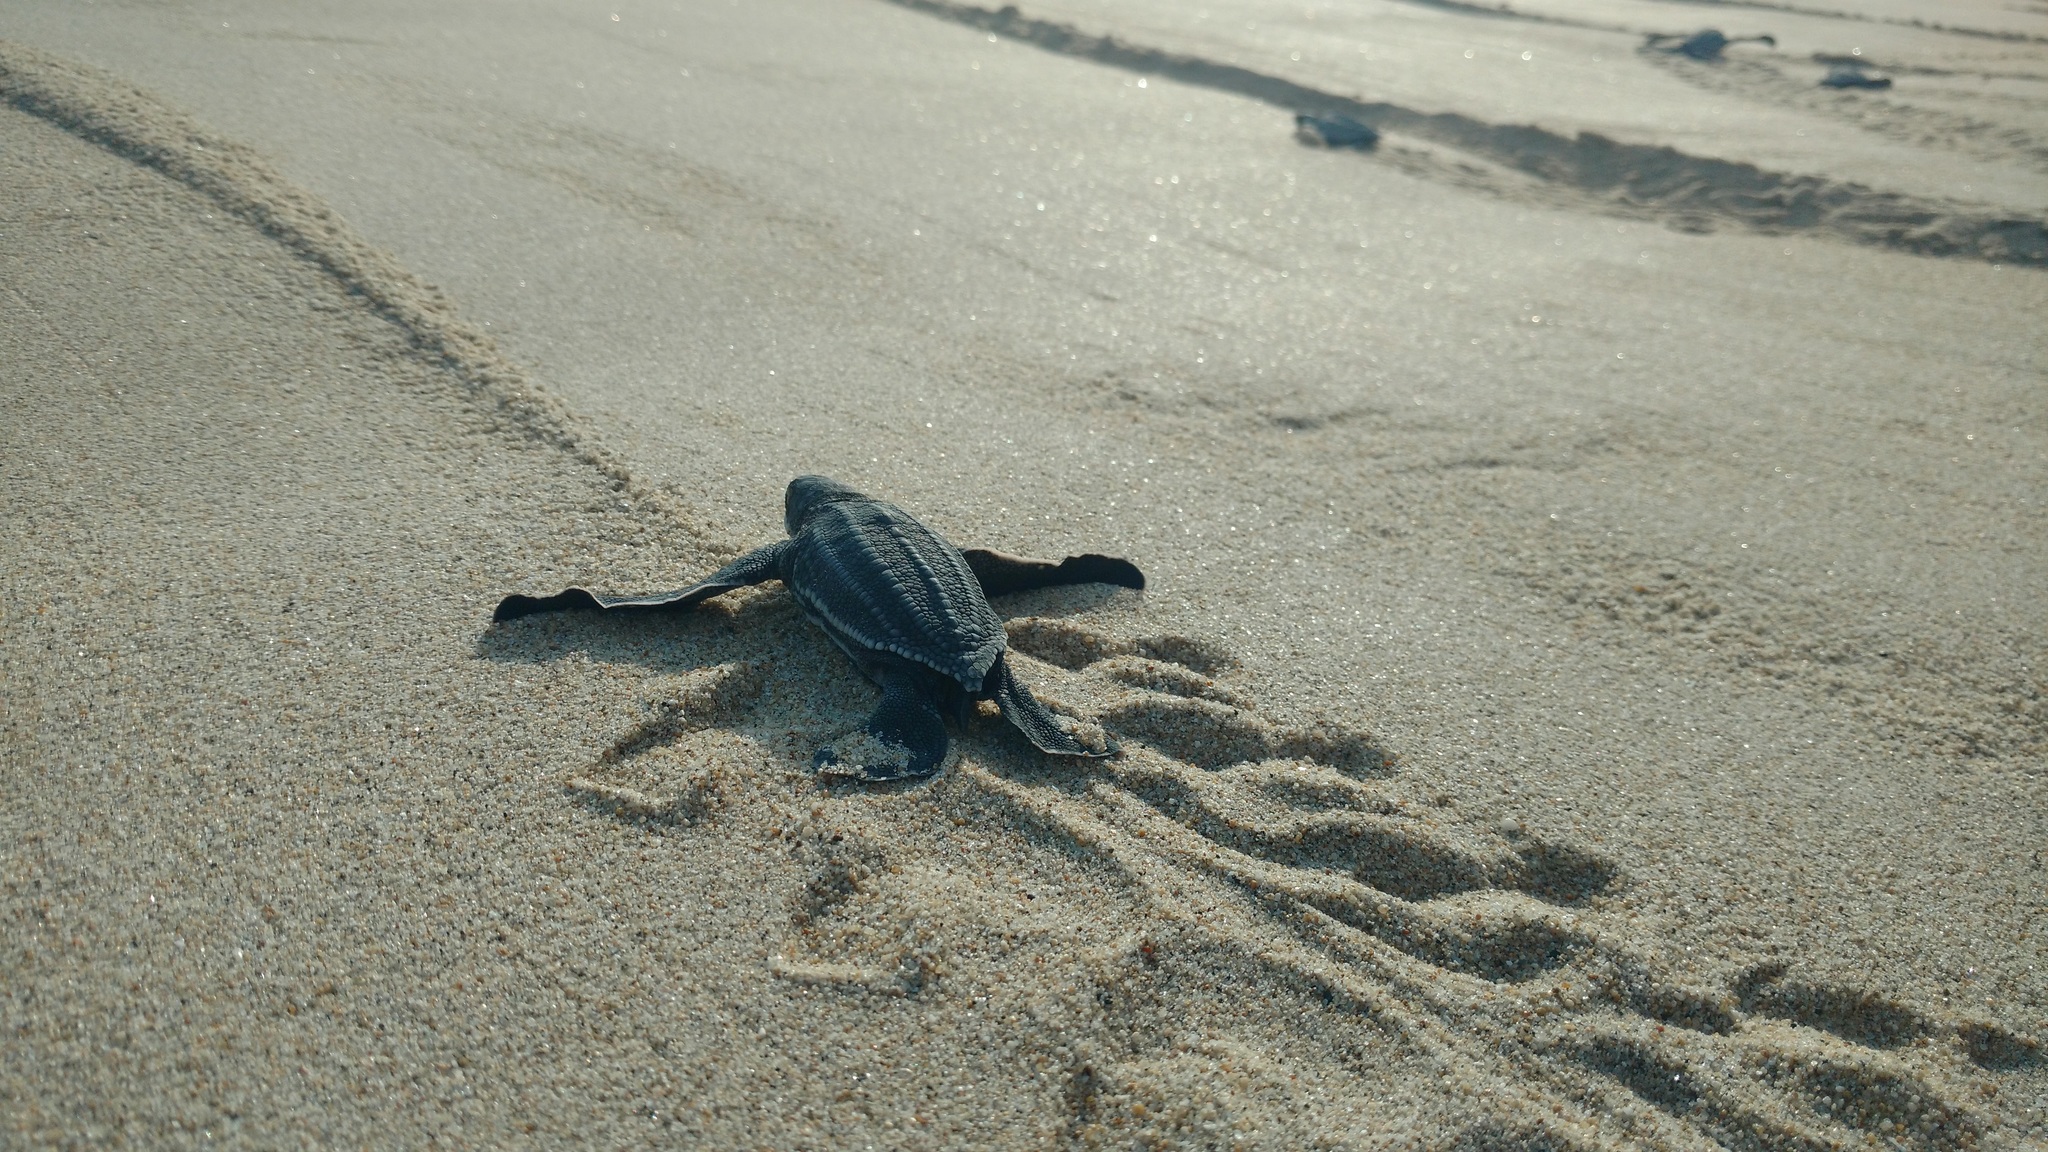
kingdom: Animalia
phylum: Chordata
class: Testudines
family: Dermochelyidae
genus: Dermochelys
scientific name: Dermochelys coriacea
